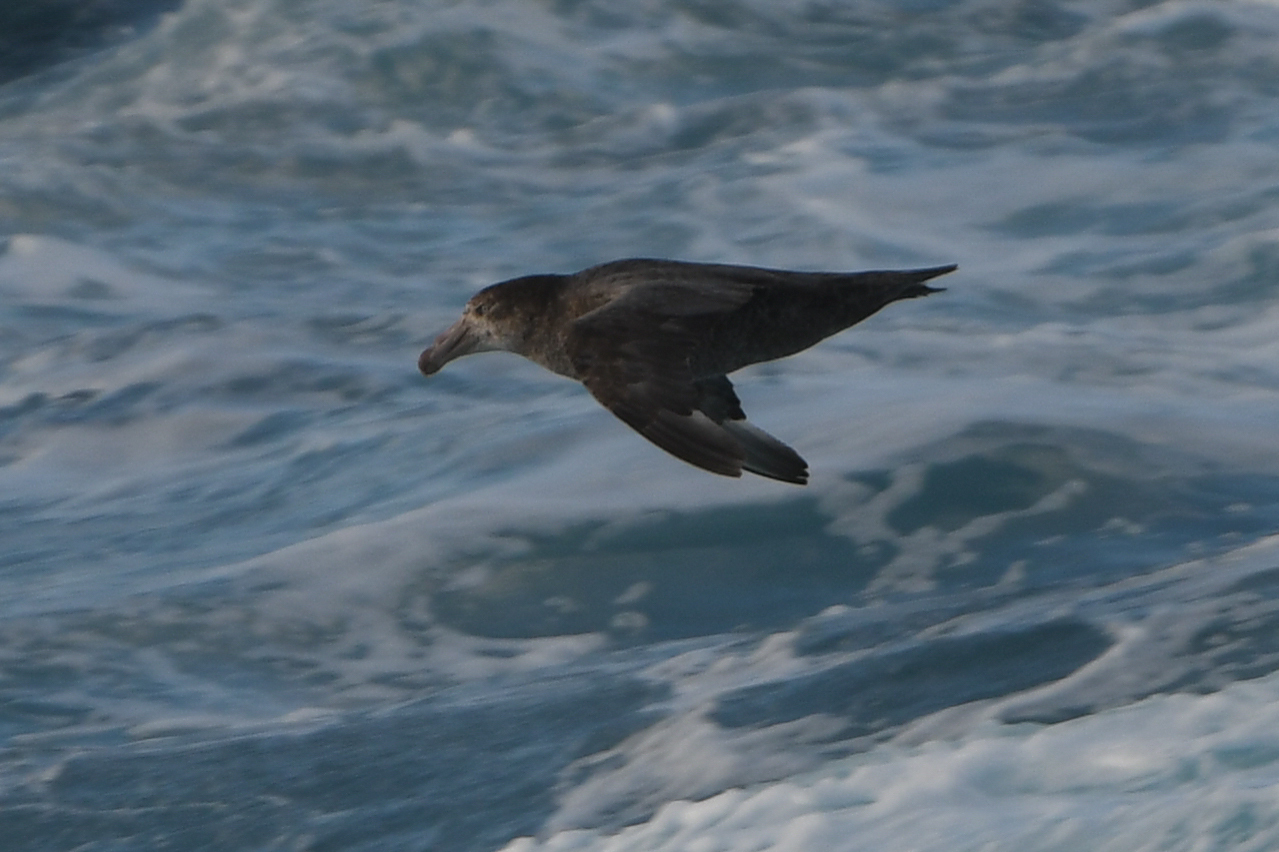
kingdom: Animalia
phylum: Chordata
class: Aves
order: Procellariiformes
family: Procellariidae
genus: Macronectes
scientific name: Macronectes halli
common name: Northern giant petrel
